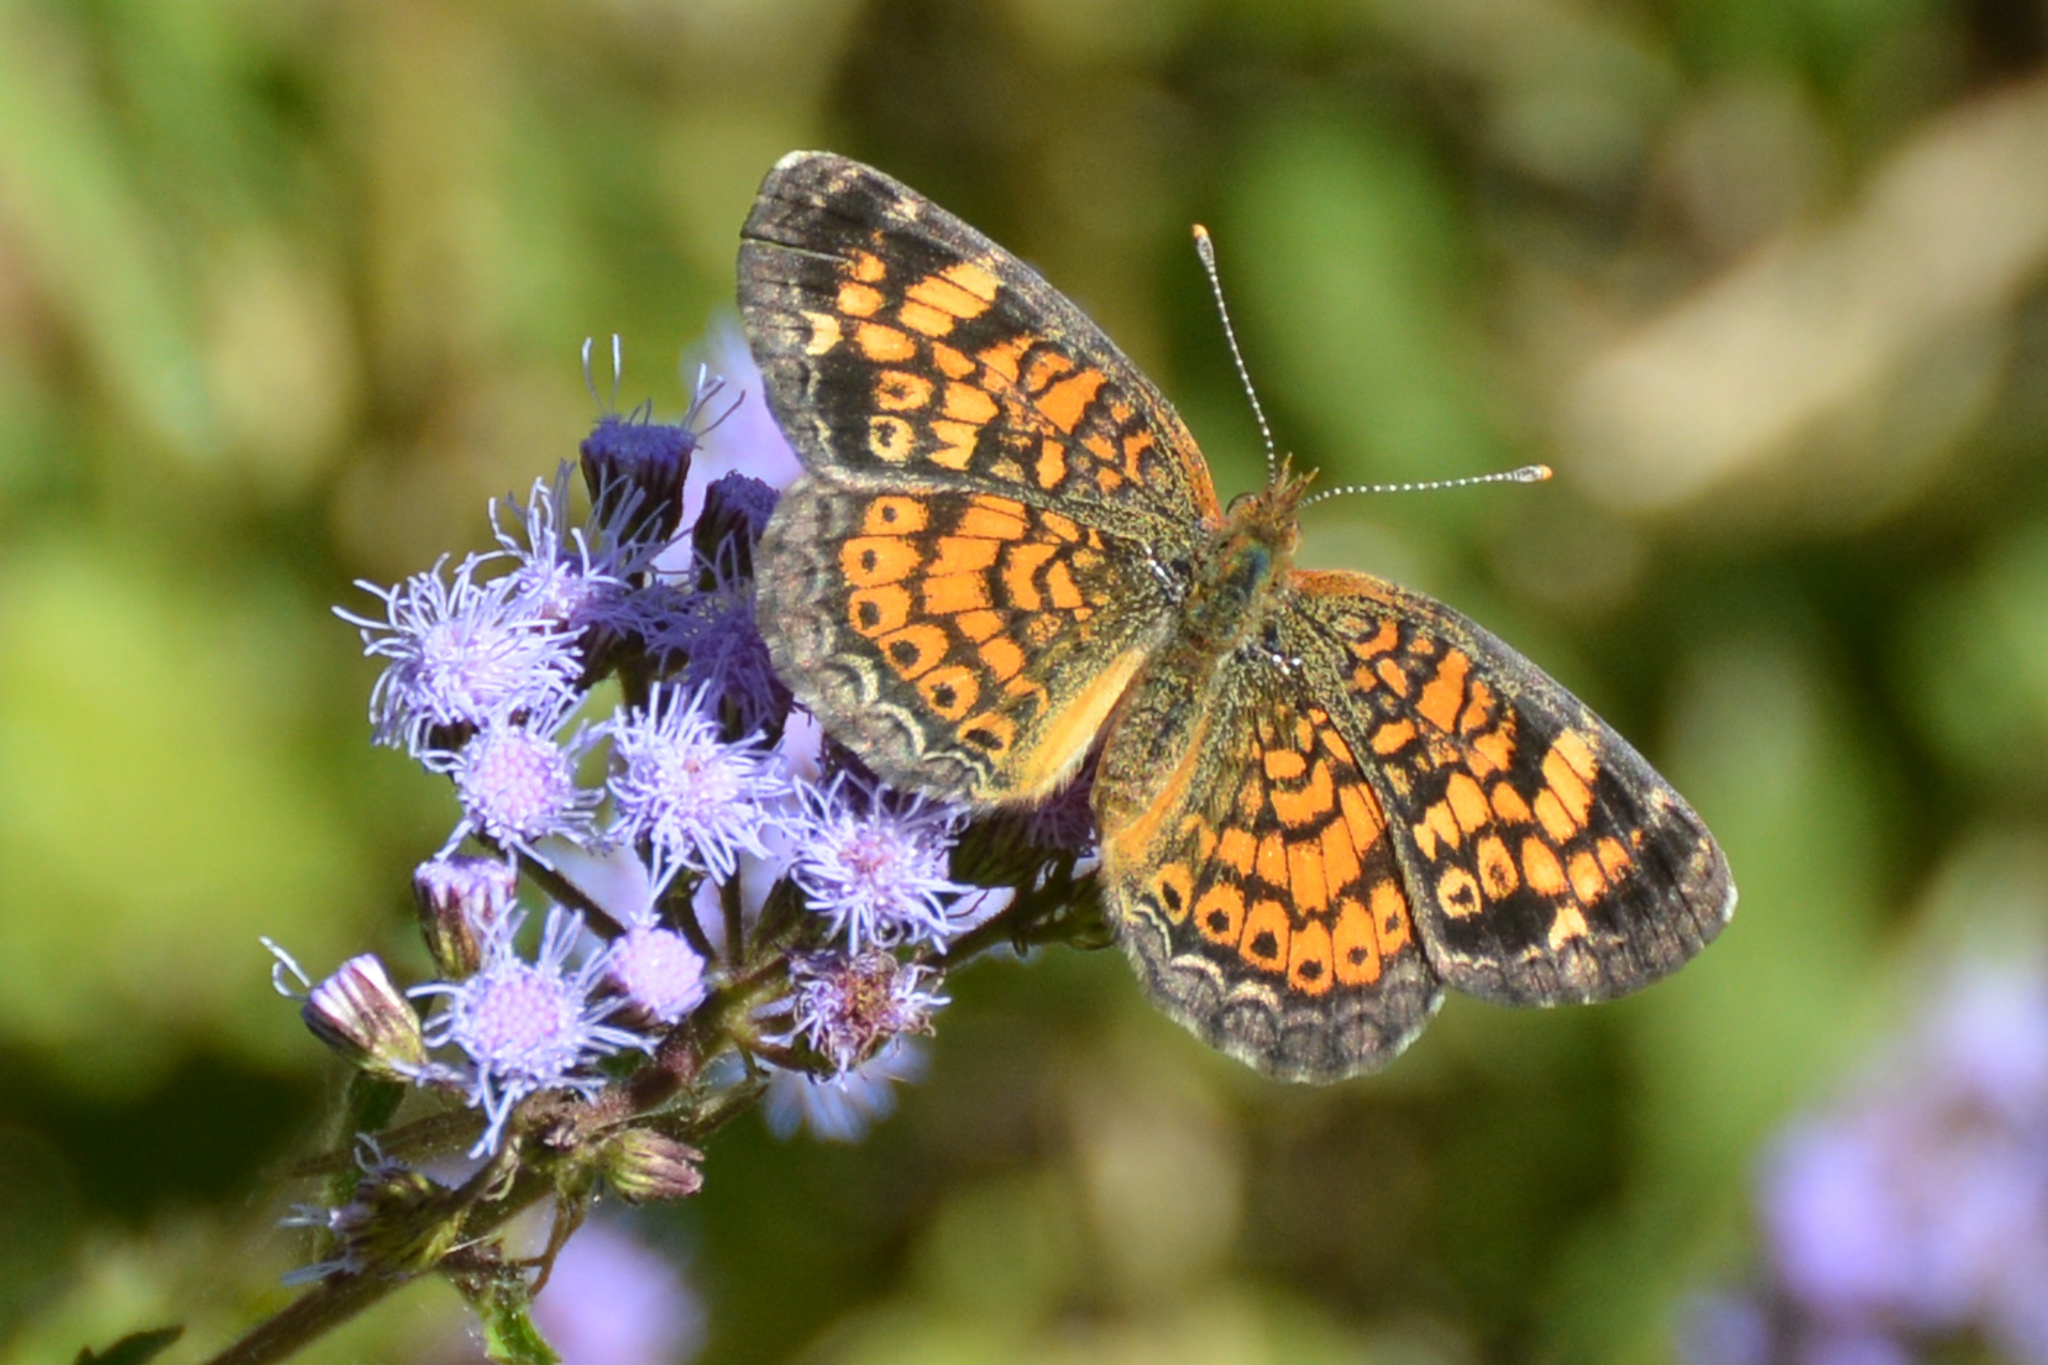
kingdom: Animalia
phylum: Arthropoda
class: Insecta
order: Lepidoptera
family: Nymphalidae
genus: Phyciodes
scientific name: Phyciodes tharos
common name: Pearl crescent
